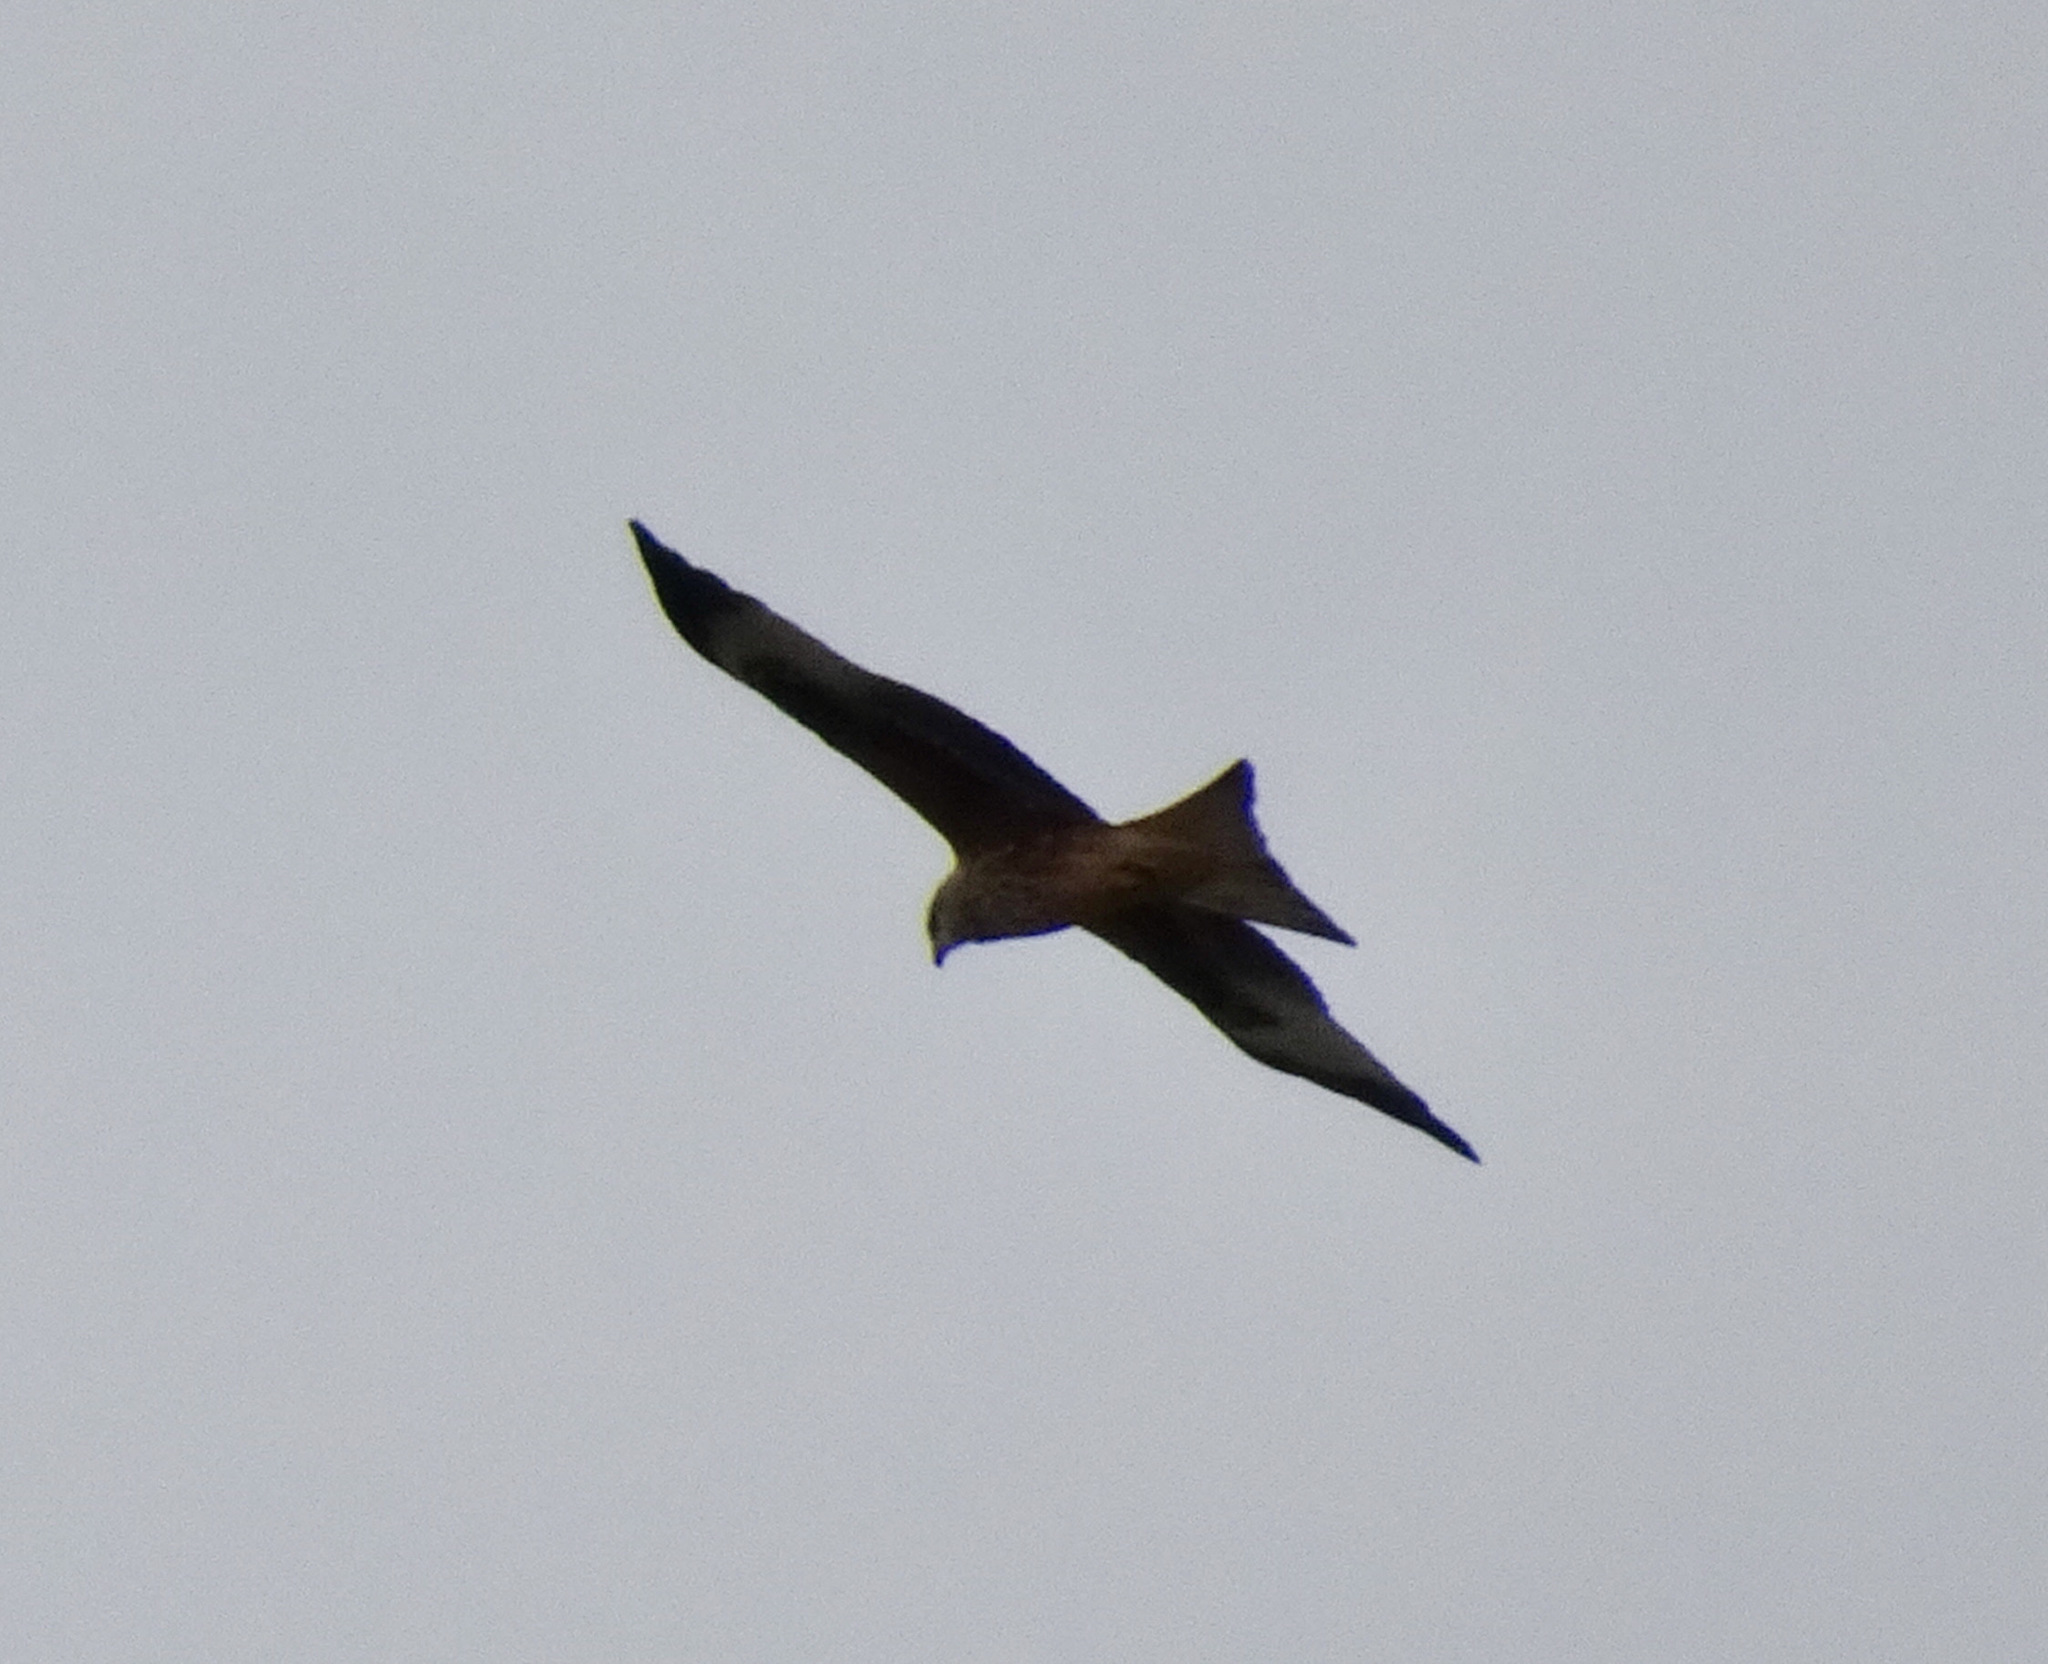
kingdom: Animalia
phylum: Chordata
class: Aves
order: Accipitriformes
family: Accipitridae
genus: Milvus
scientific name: Milvus milvus
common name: Red kite
